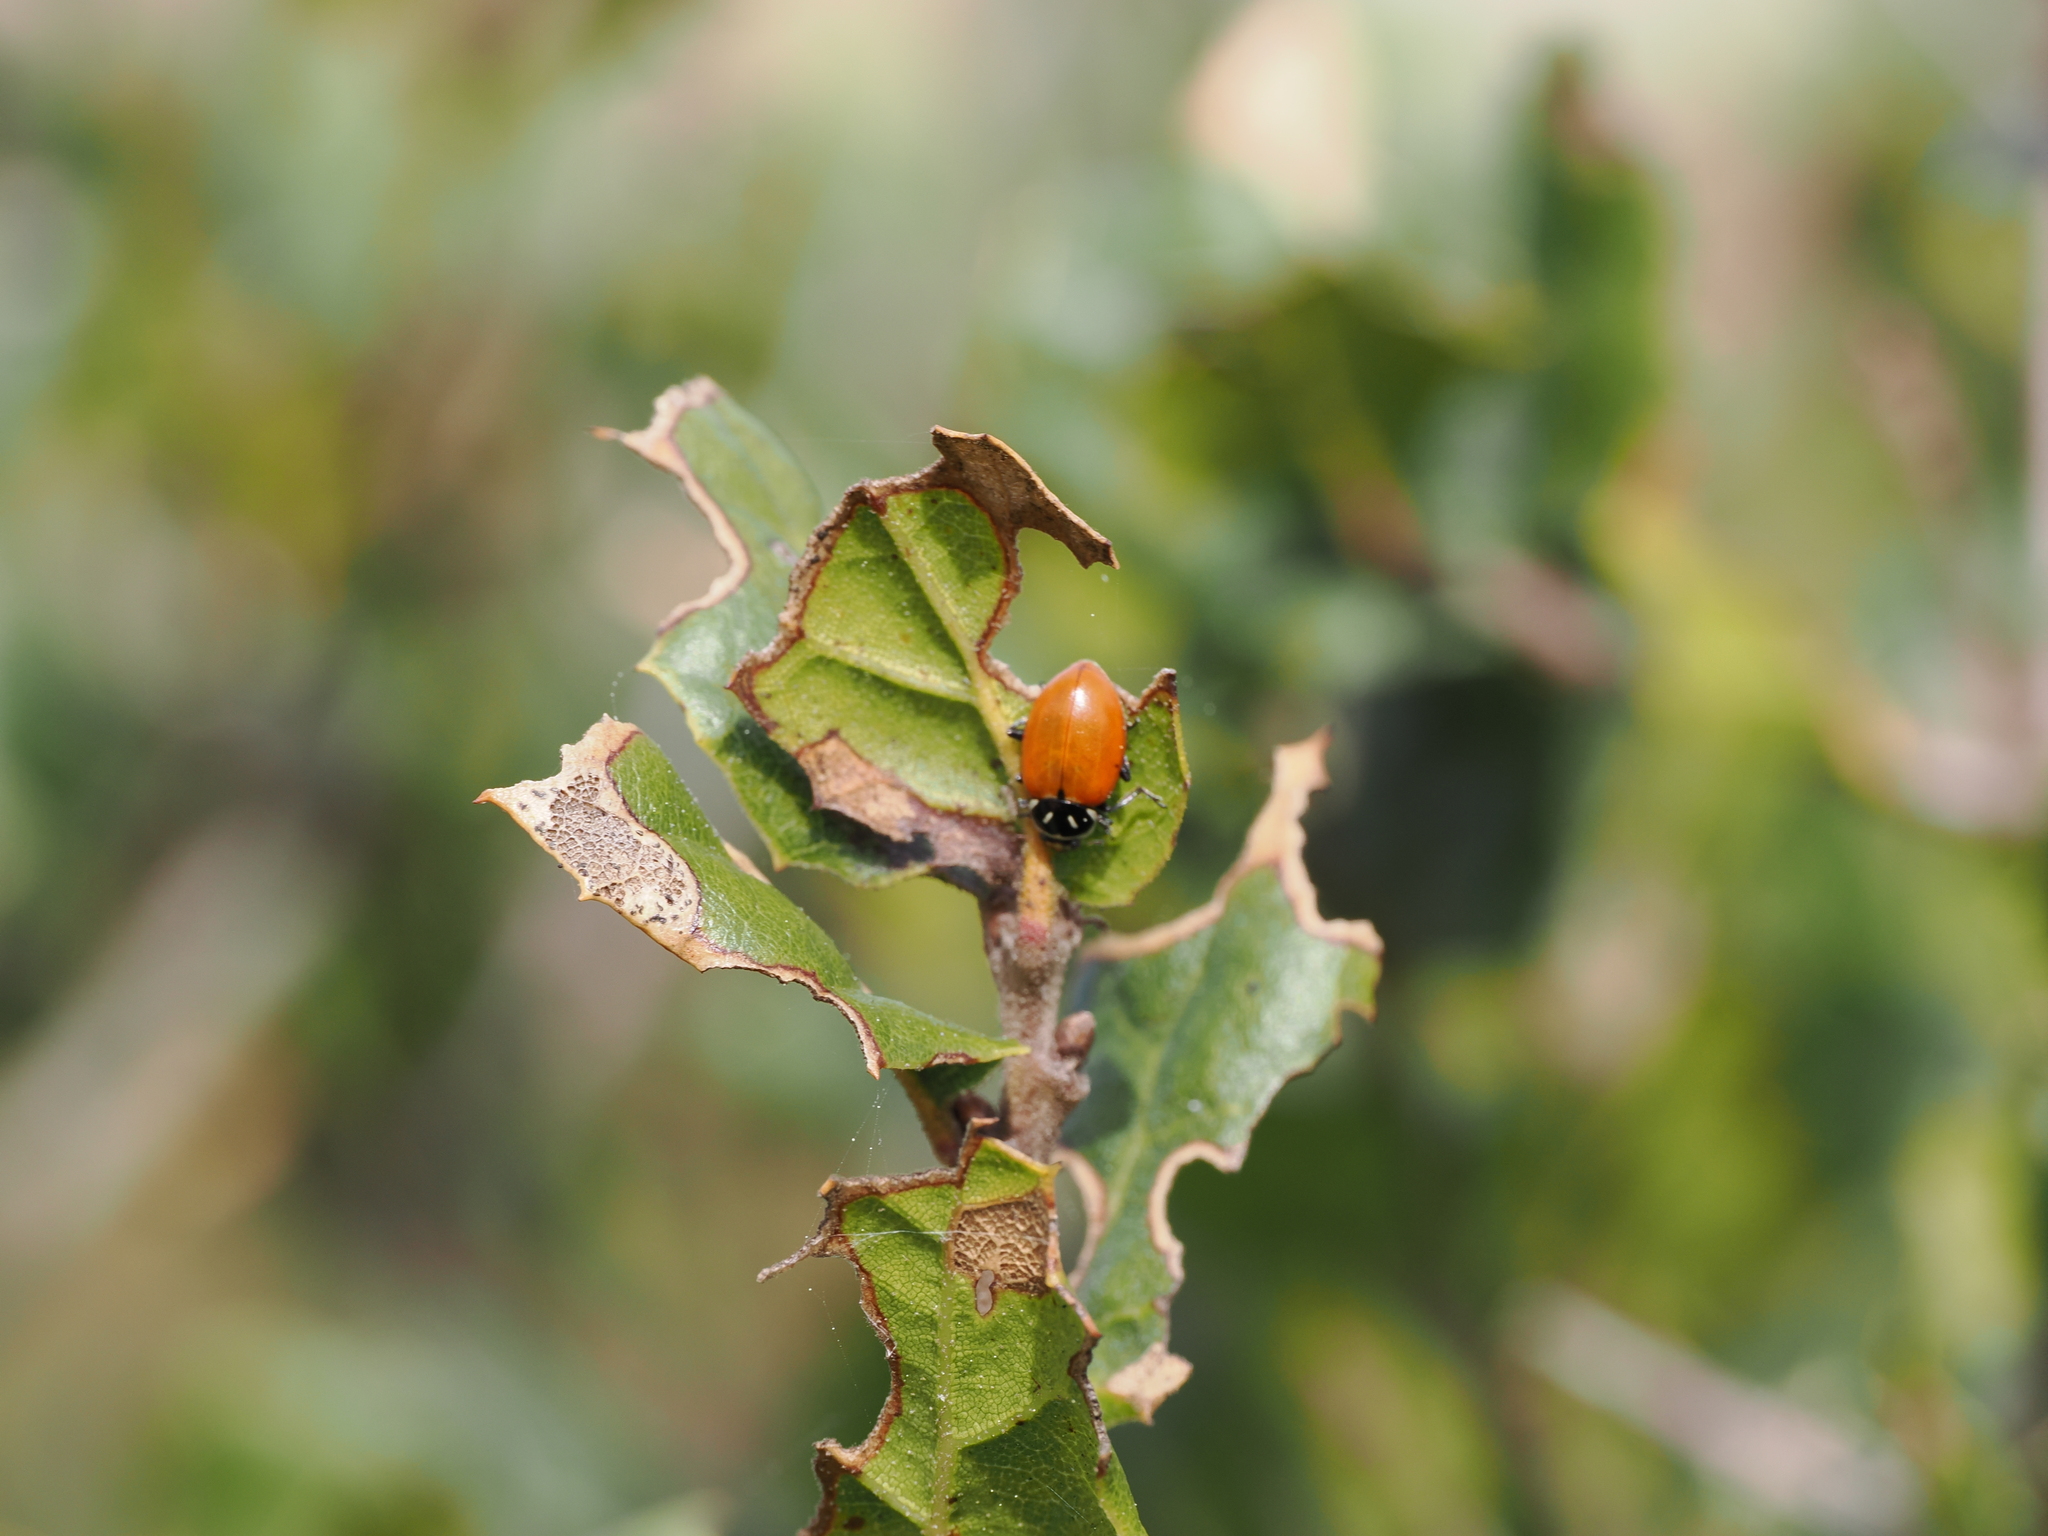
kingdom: Animalia
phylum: Arthropoda
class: Insecta
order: Coleoptera
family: Coccinellidae
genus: Hippodamia
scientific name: Hippodamia convergens
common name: Convergent lady beetle
